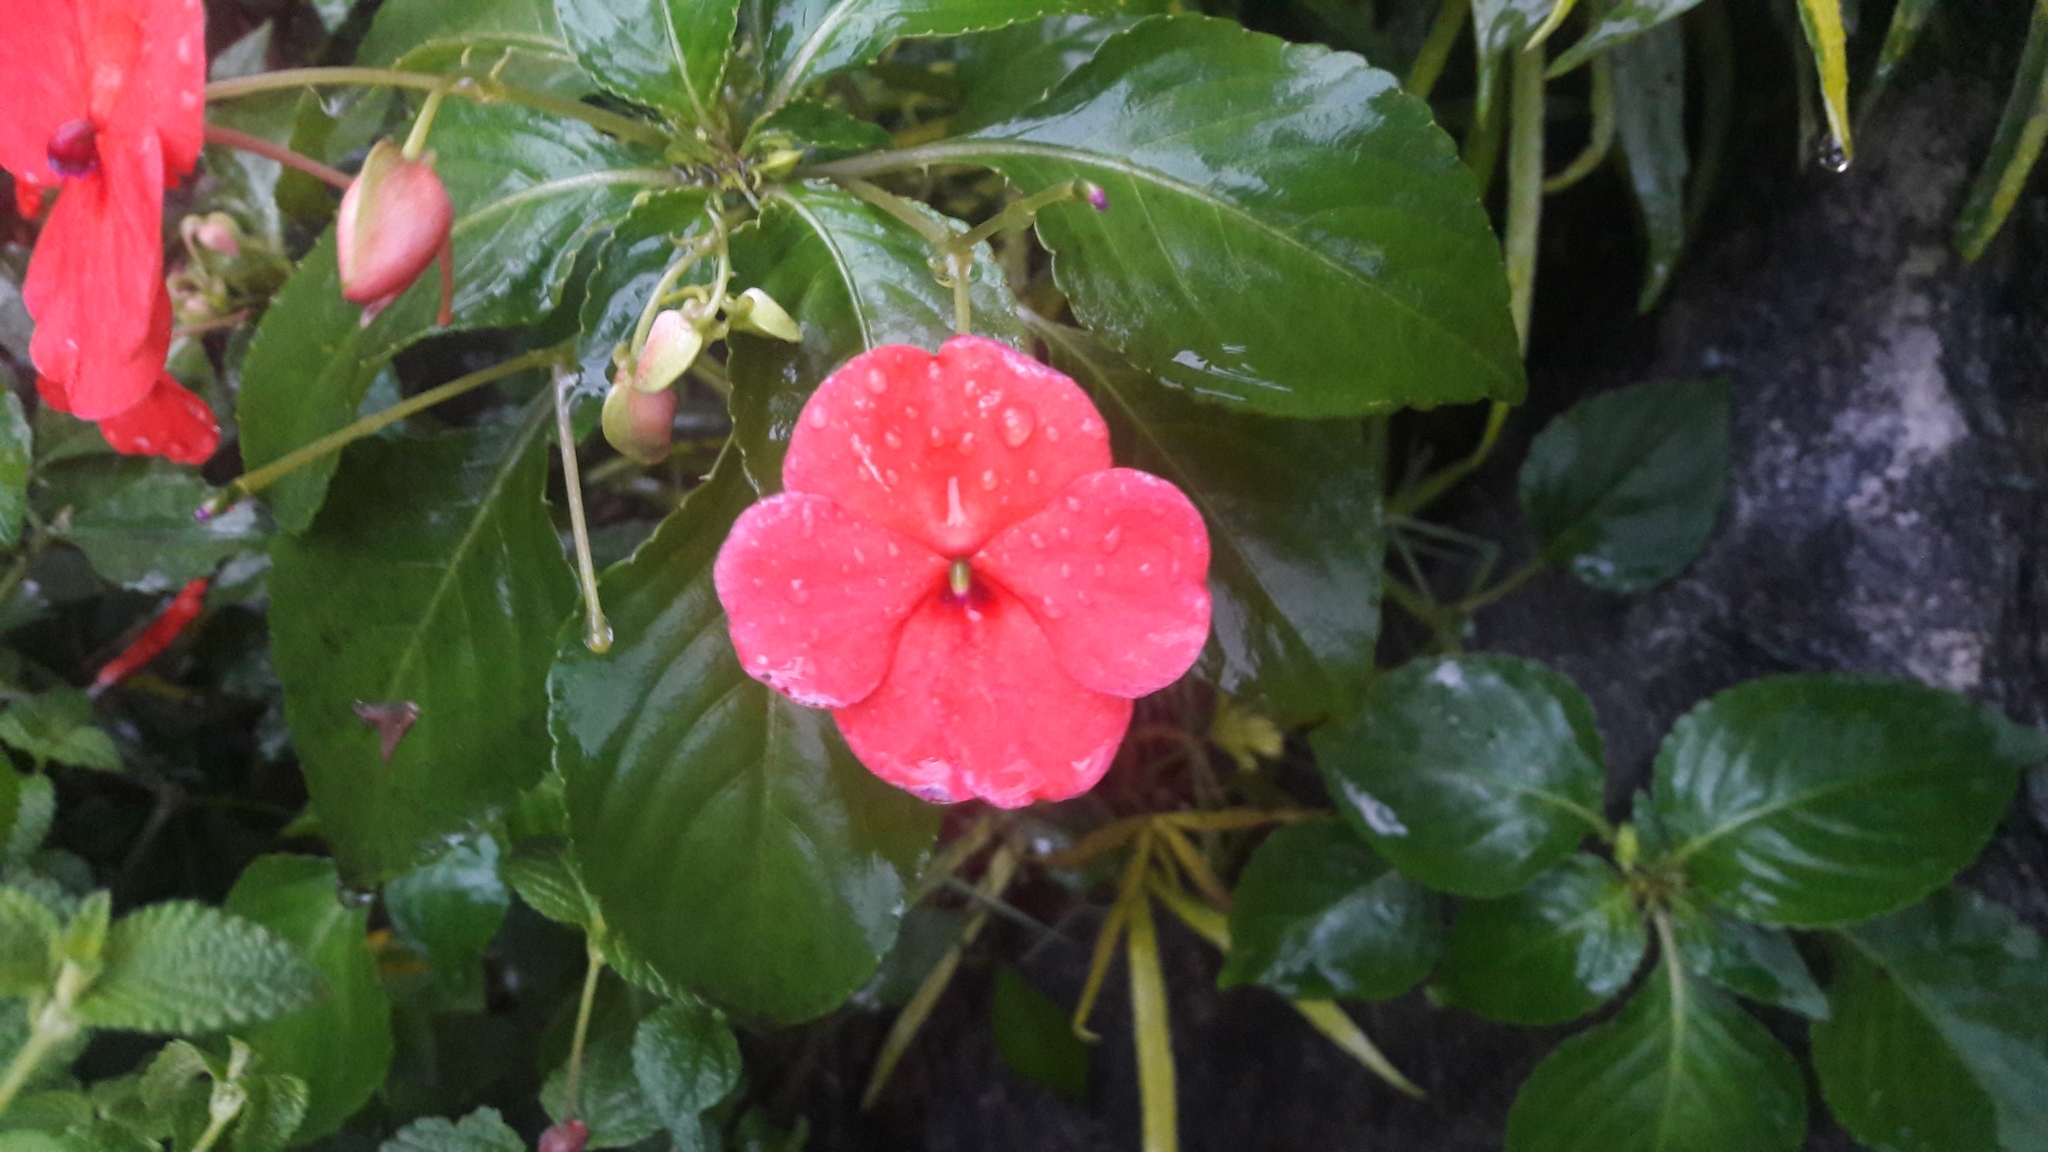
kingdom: Plantae
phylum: Tracheophyta
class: Magnoliopsida
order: Ericales
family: Balsaminaceae
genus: Impatiens
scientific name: Impatiens walleriana
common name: Buzzy lizzy
